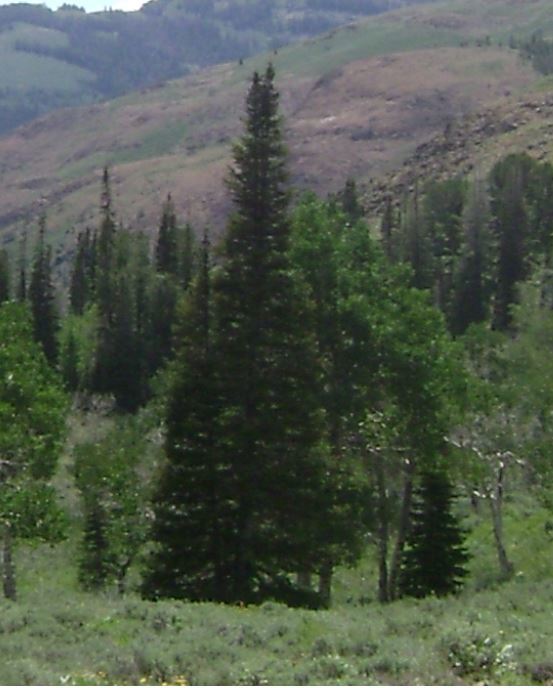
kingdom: Plantae
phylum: Tracheophyta
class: Pinopsida
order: Pinales
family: Pinaceae
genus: Abies
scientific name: Abies lasiocarpa
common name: Subalpine fir
